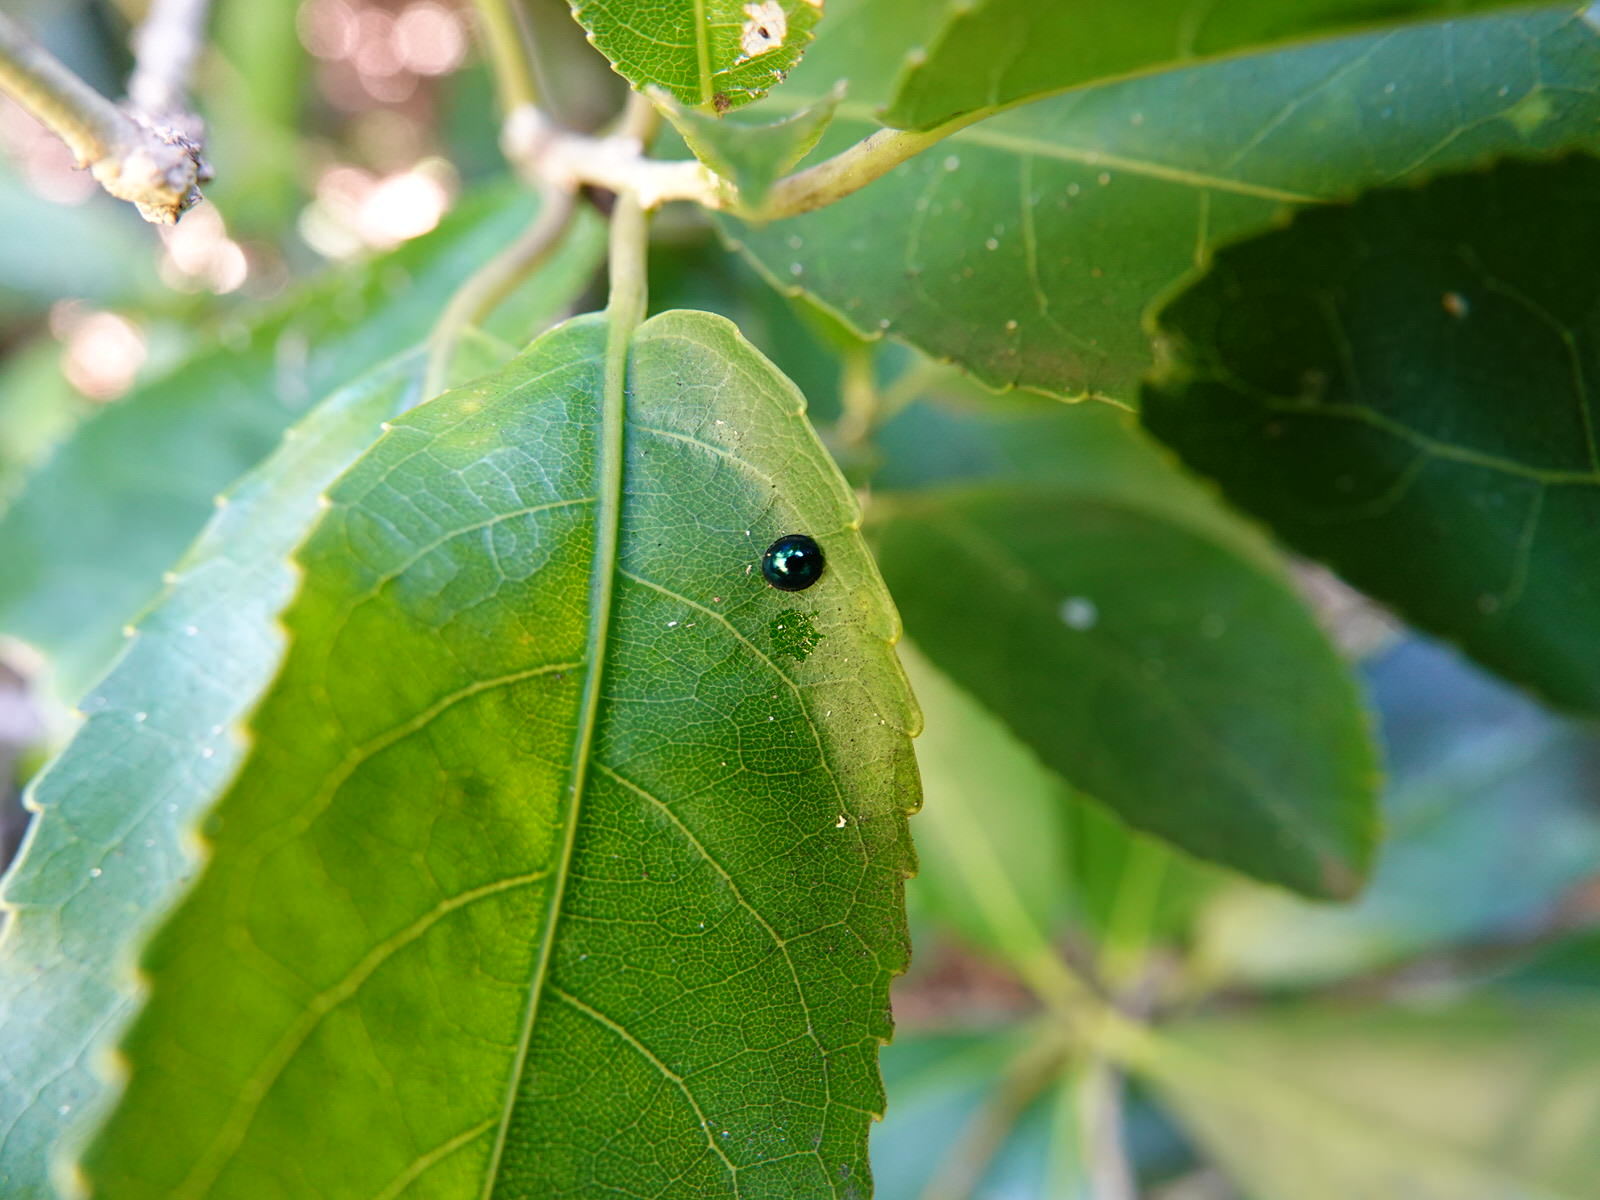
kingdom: Animalia
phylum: Arthropoda
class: Insecta
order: Coleoptera
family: Coccinellidae
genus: Halmus
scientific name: Halmus chalybeus
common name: Steel blue ladybird beetle
